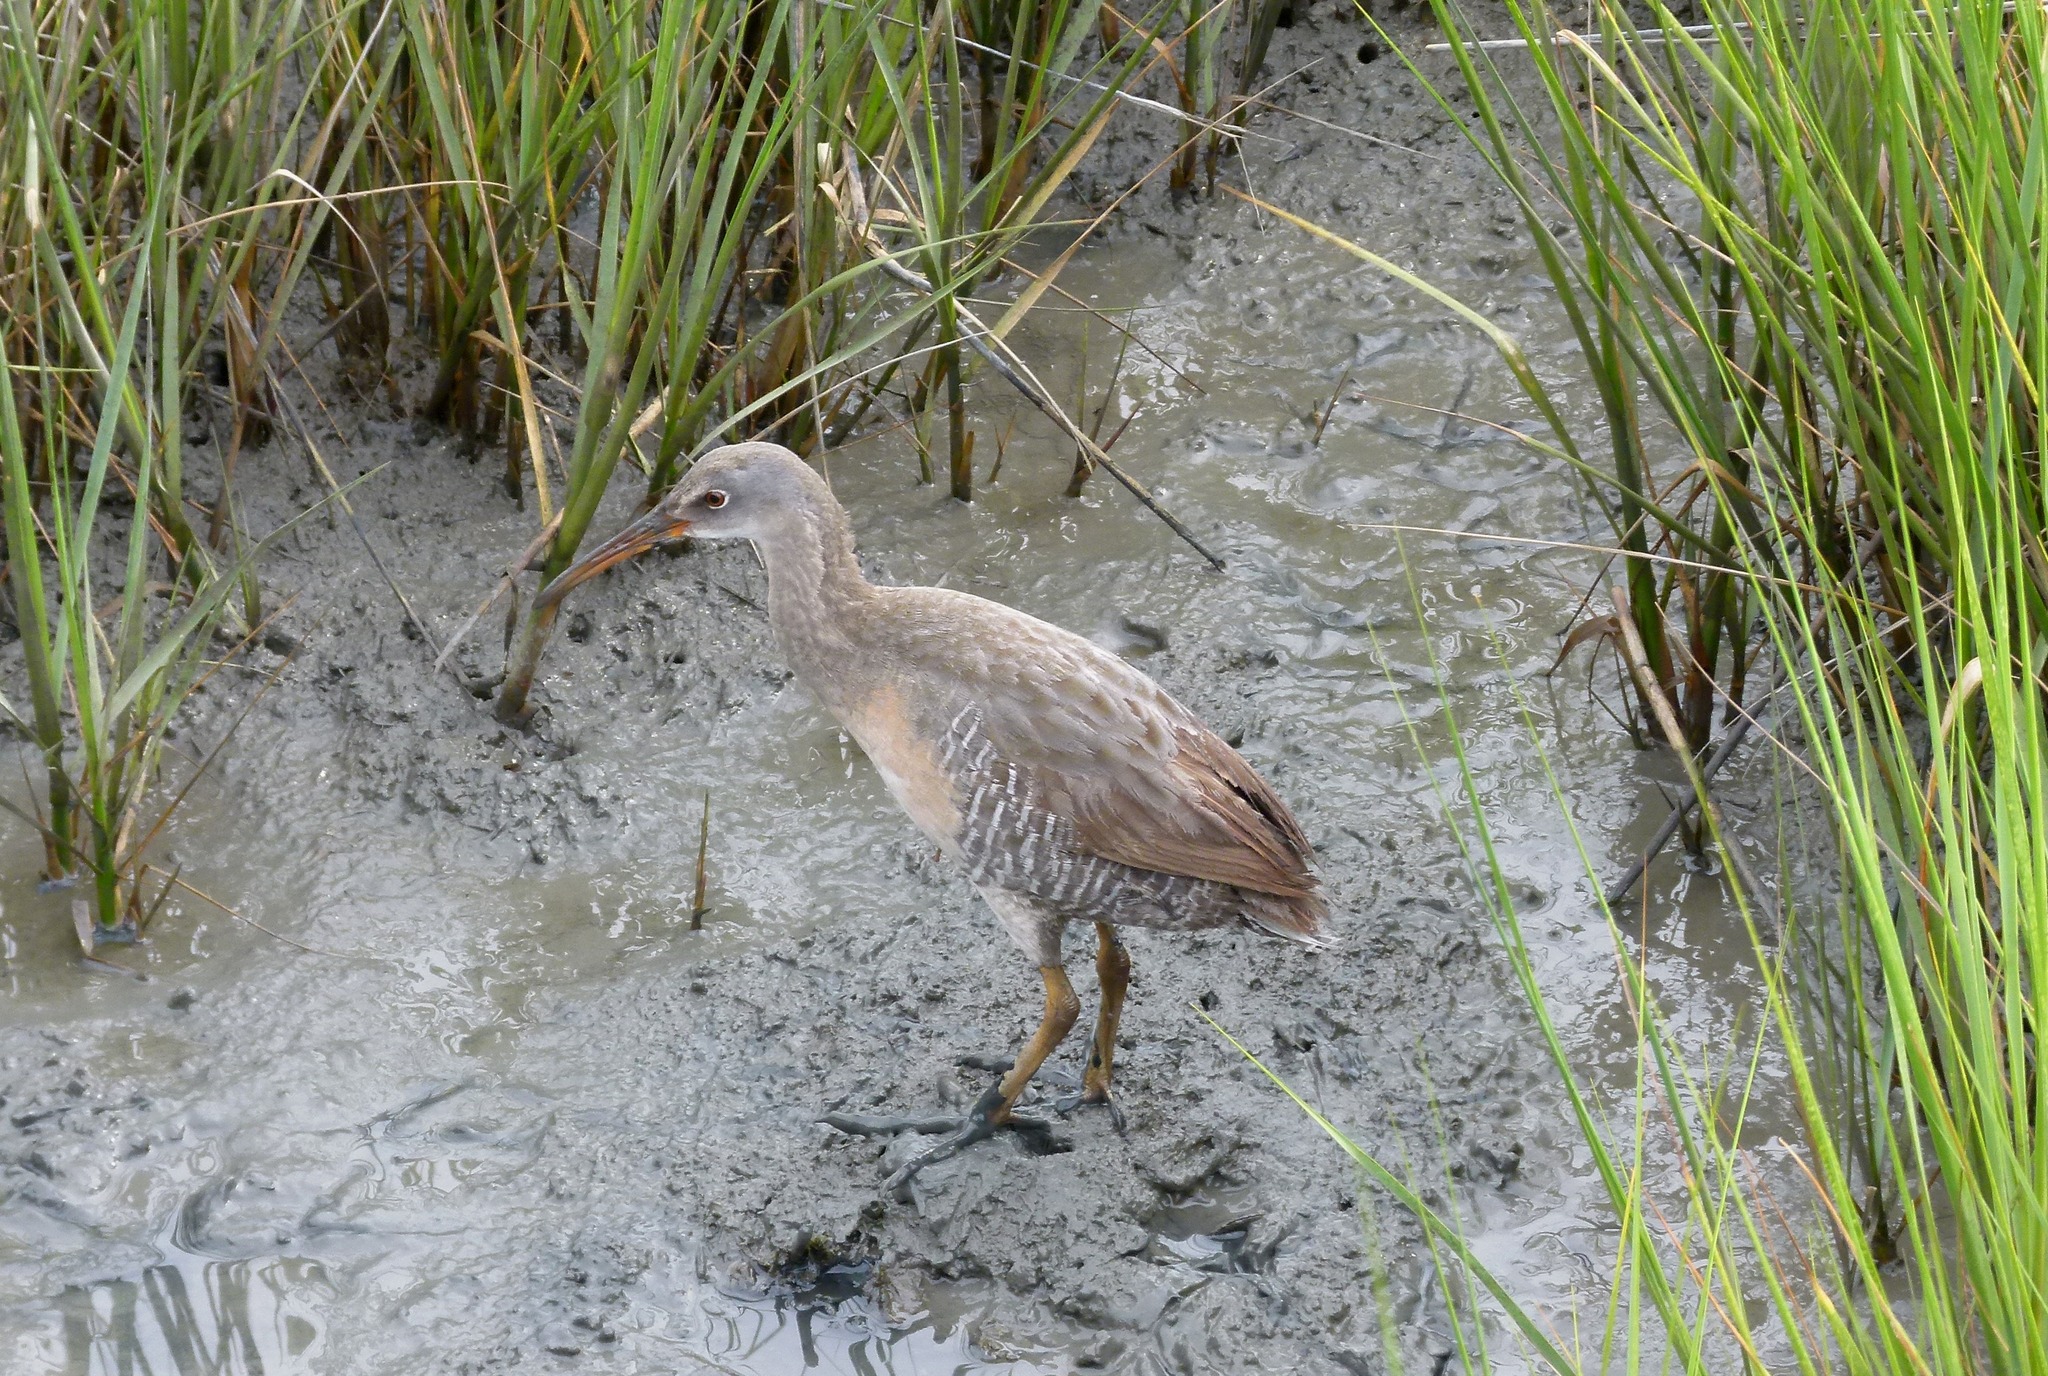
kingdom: Animalia
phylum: Chordata
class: Aves
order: Gruiformes
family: Rallidae
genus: Rallus
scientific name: Rallus crepitans
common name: Clapper rail
